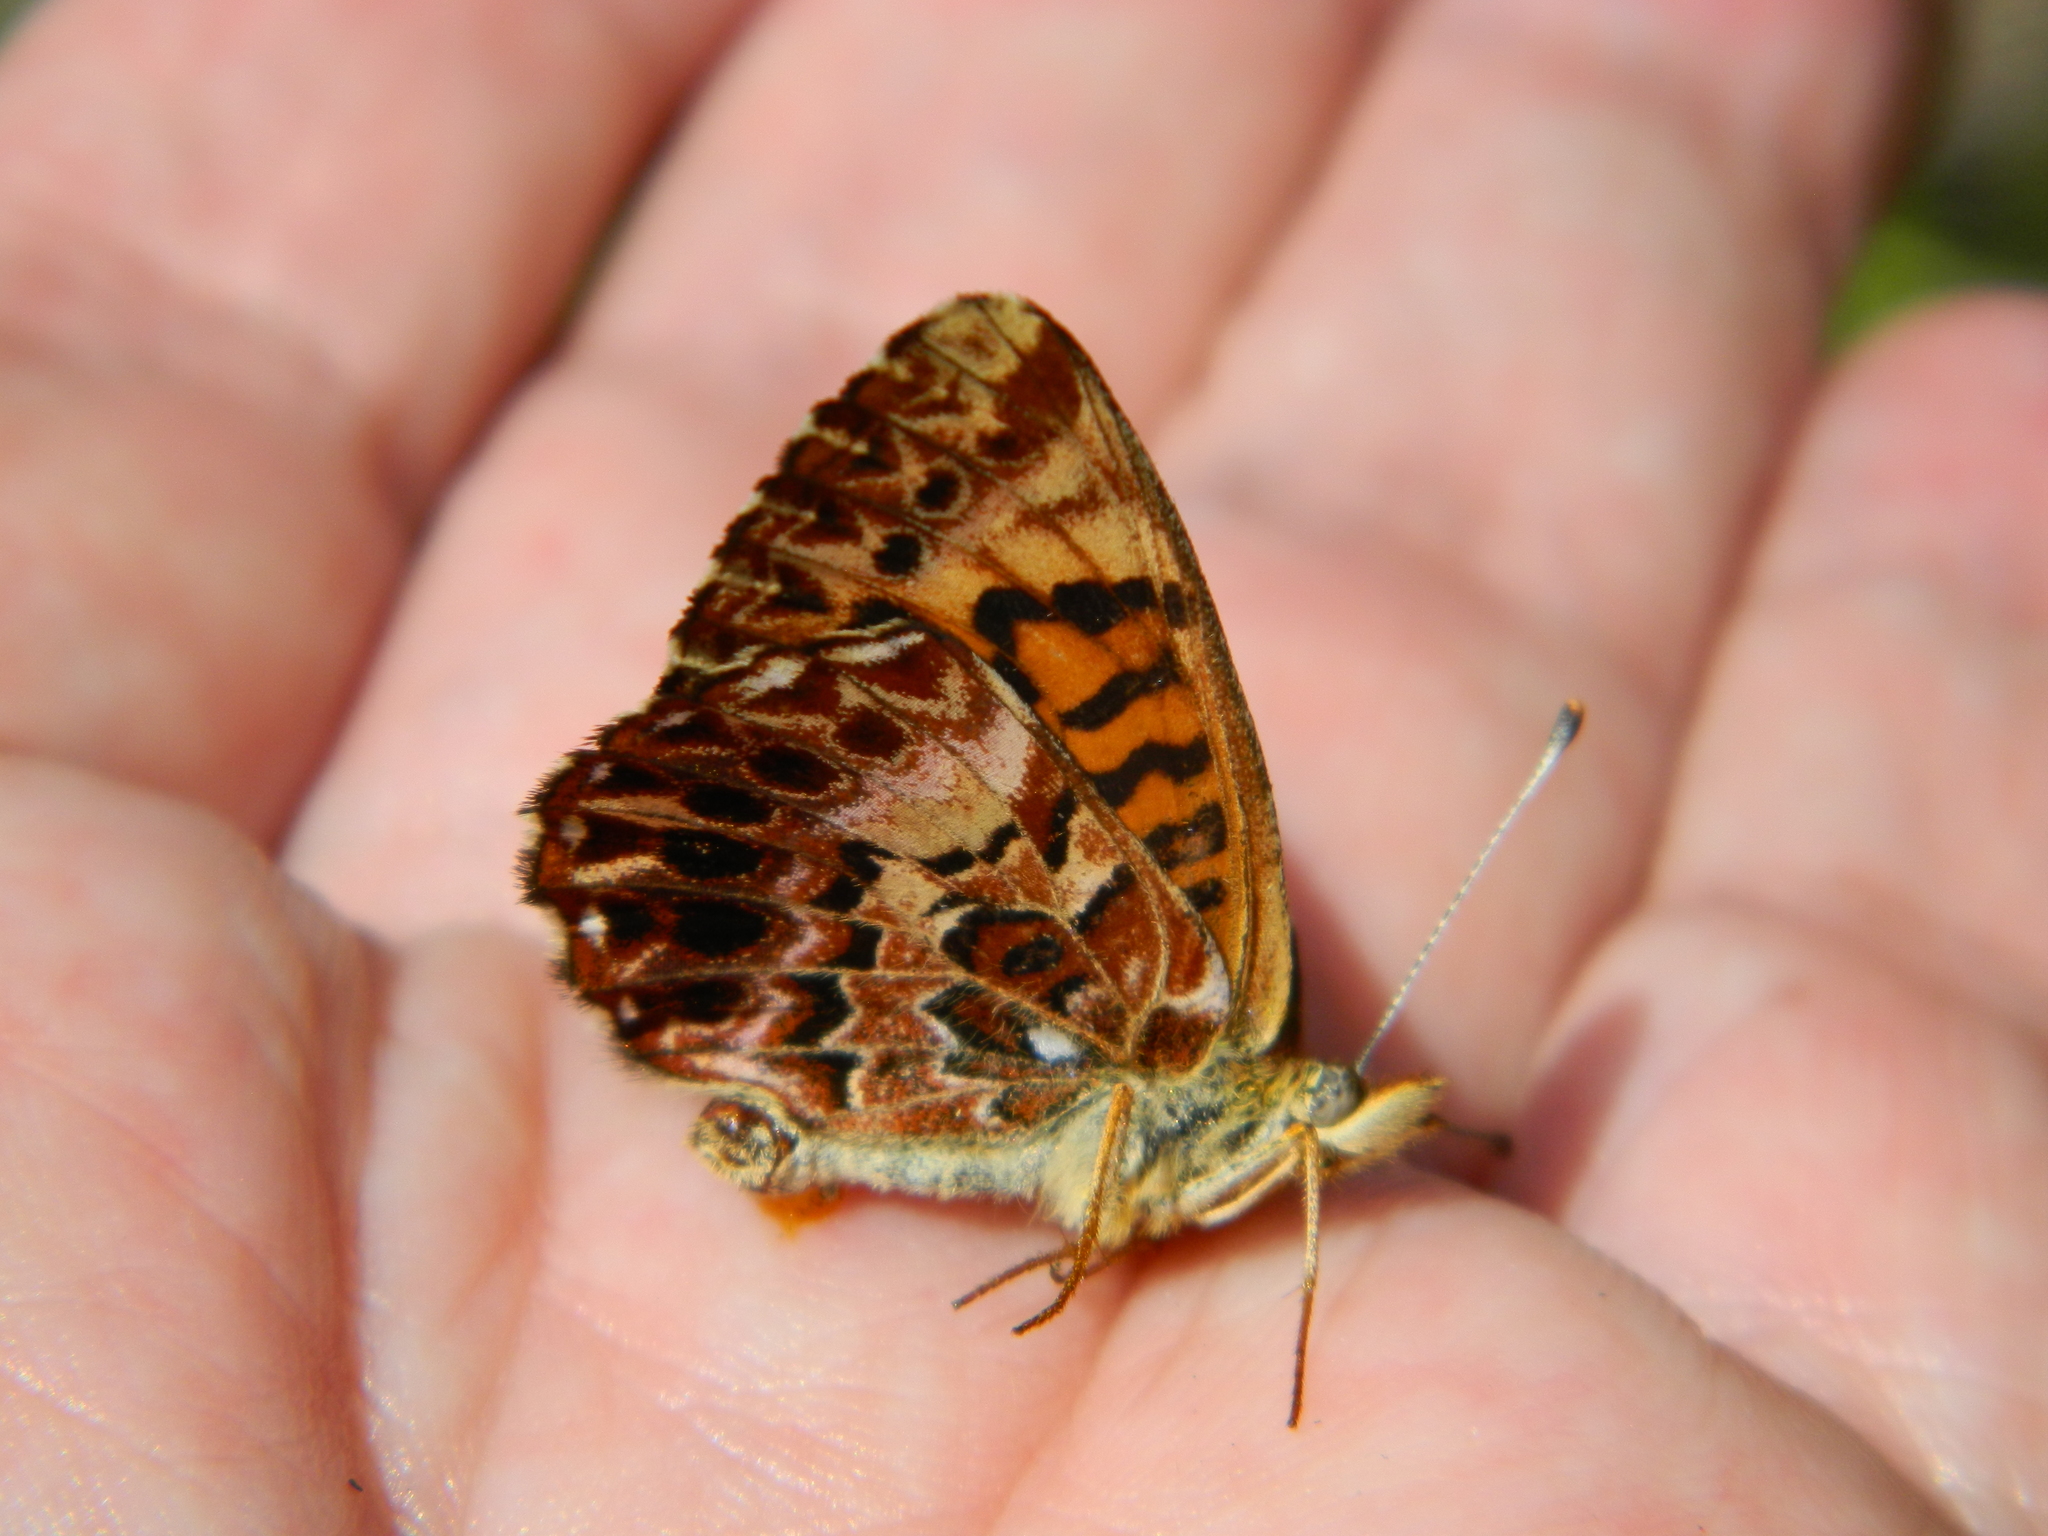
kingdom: Animalia
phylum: Arthropoda
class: Insecta
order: Lepidoptera
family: Nymphalidae
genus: Clossiana
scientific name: Clossiana chariclea
